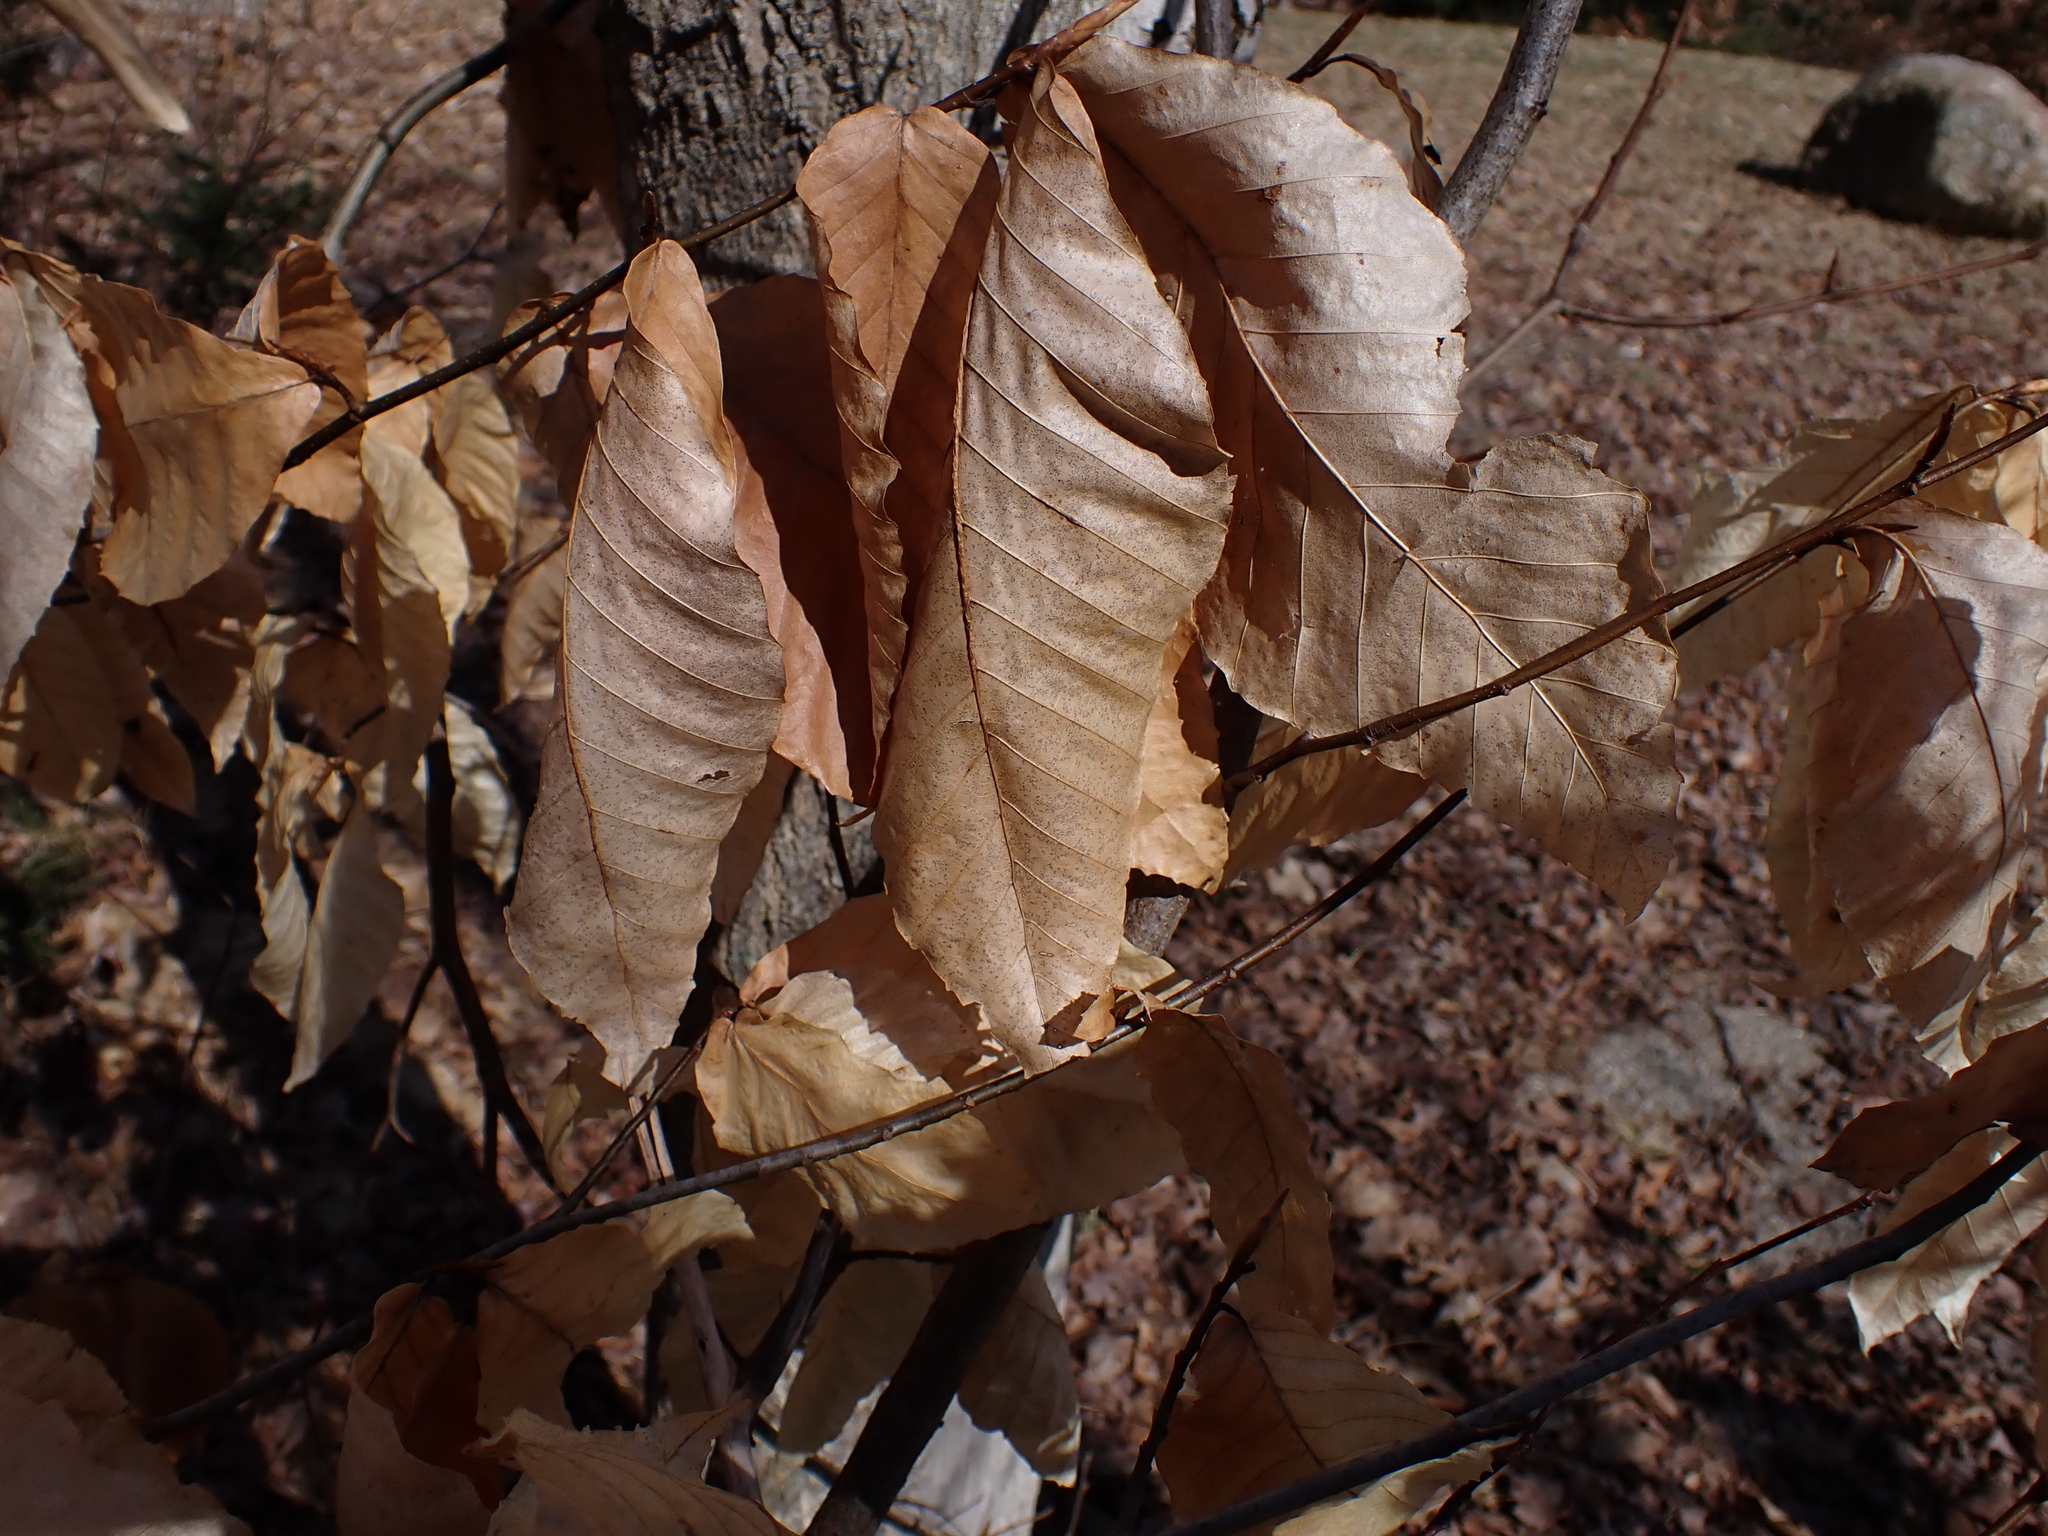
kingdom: Plantae
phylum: Tracheophyta
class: Magnoliopsida
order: Fagales
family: Fagaceae
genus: Fagus
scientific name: Fagus grandifolia
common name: American beech
